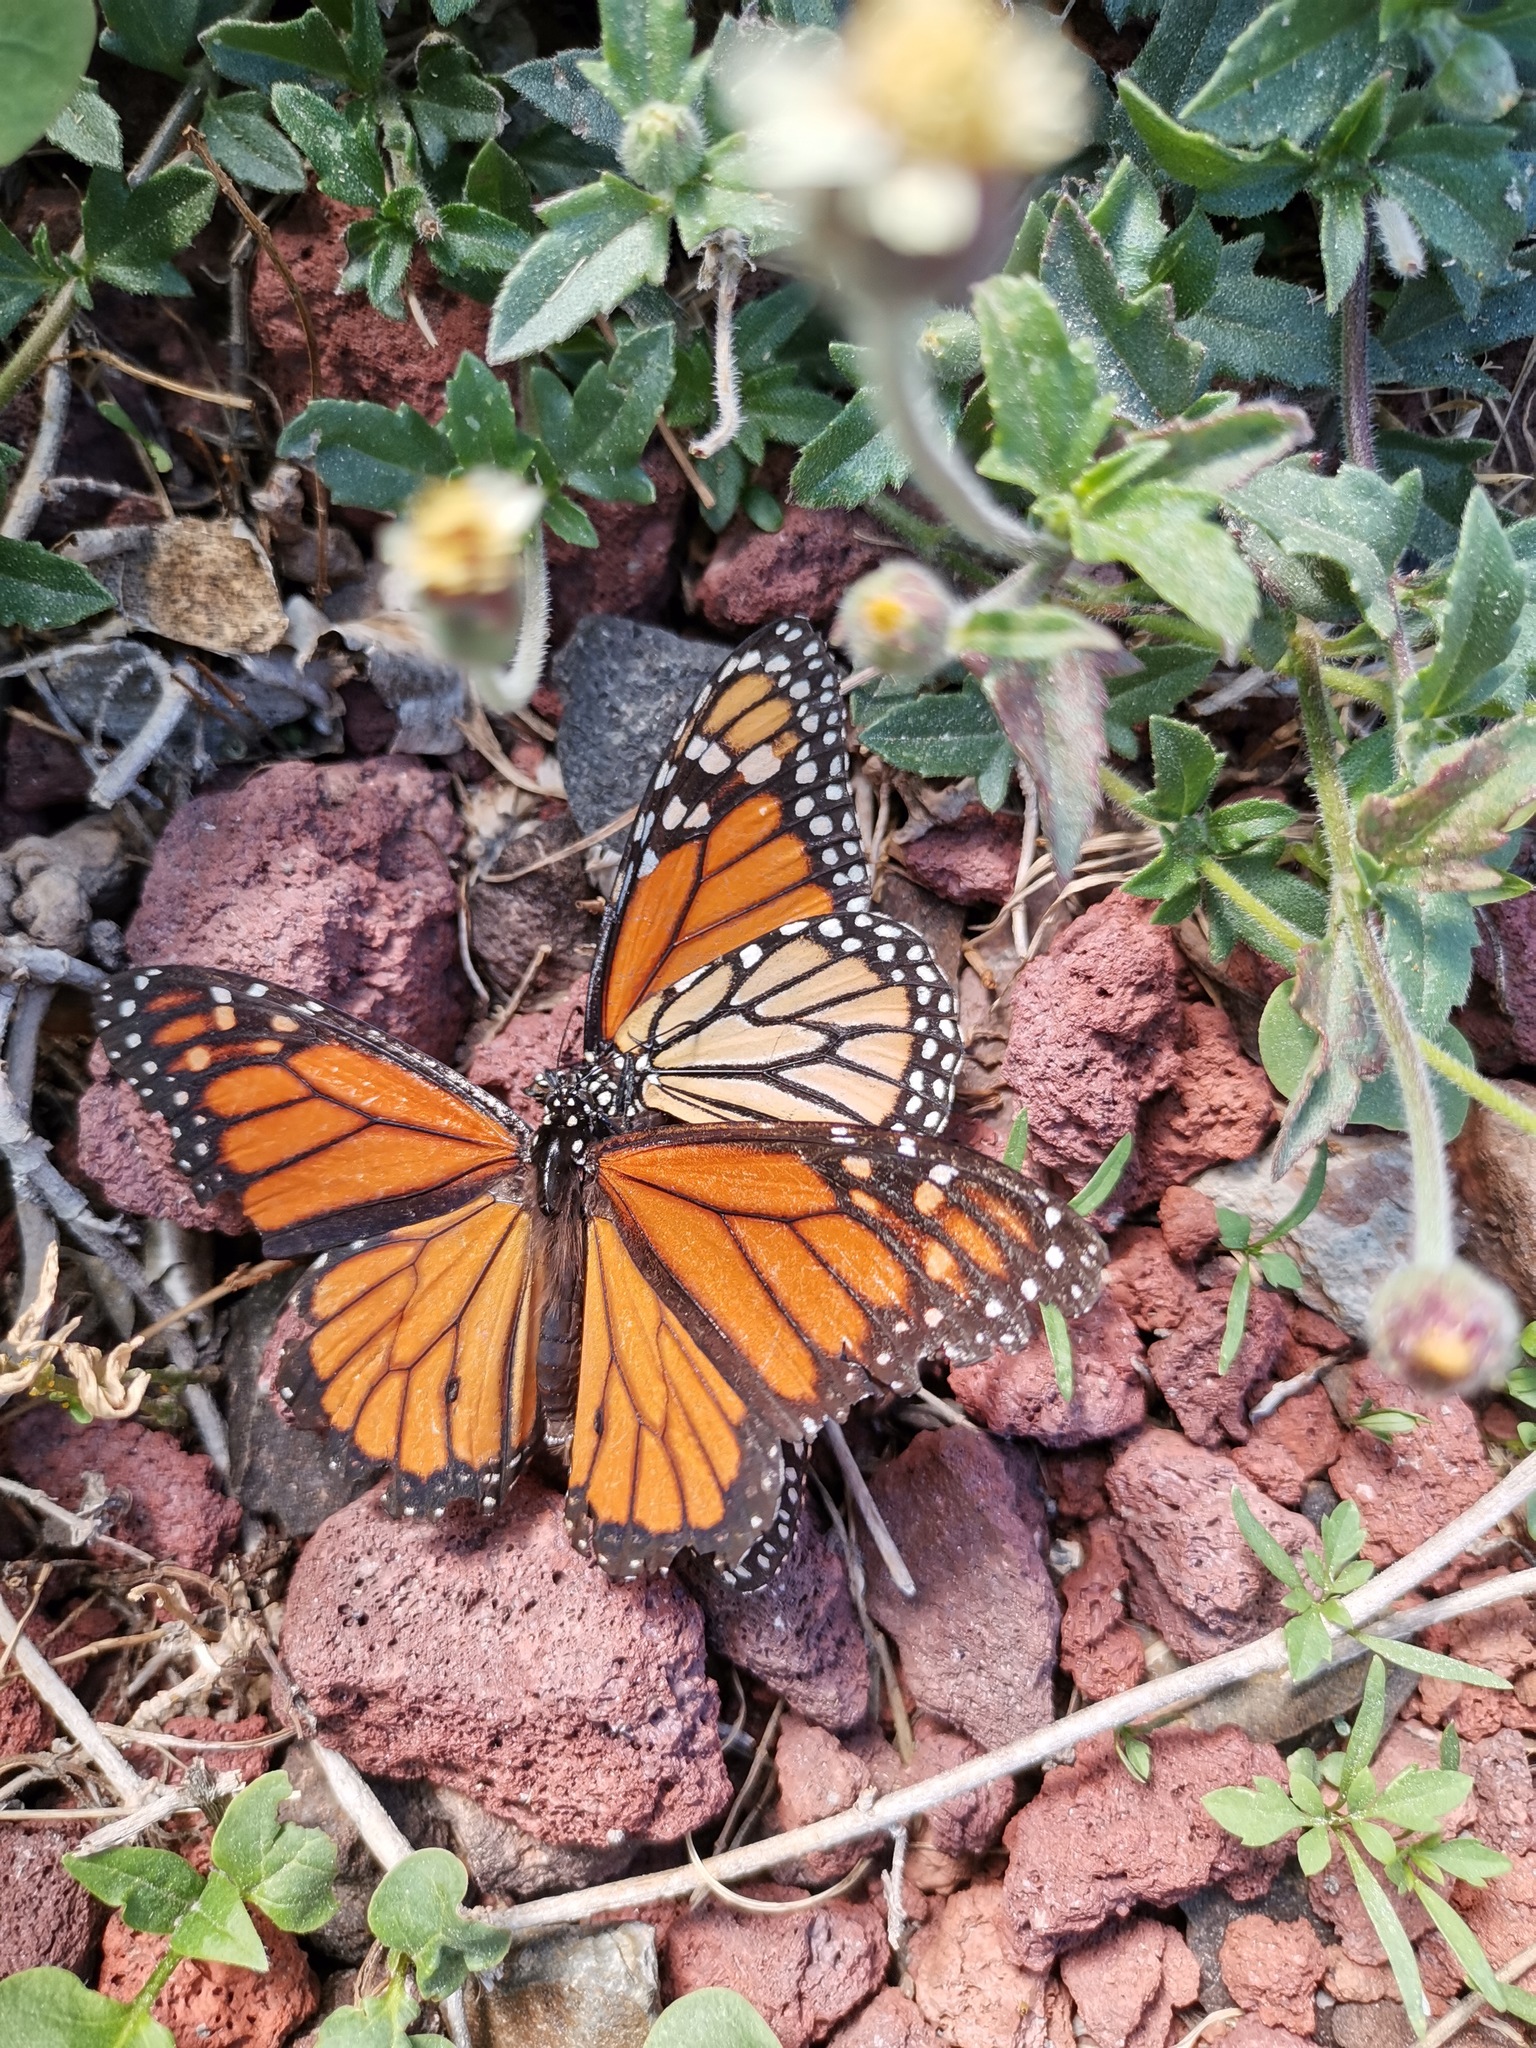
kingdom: Animalia
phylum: Arthropoda
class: Insecta
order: Lepidoptera
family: Nymphalidae
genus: Danaus
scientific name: Danaus plexippus
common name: Monarch
